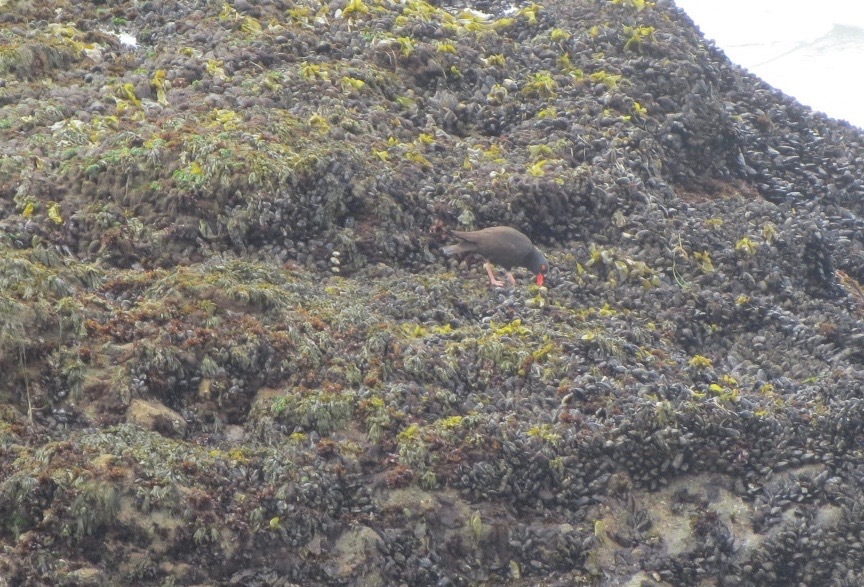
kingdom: Animalia
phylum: Chordata
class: Aves
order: Charadriiformes
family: Haematopodidae
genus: Haematopus
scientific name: Haematopus bachmani
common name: Black oystercatcher
